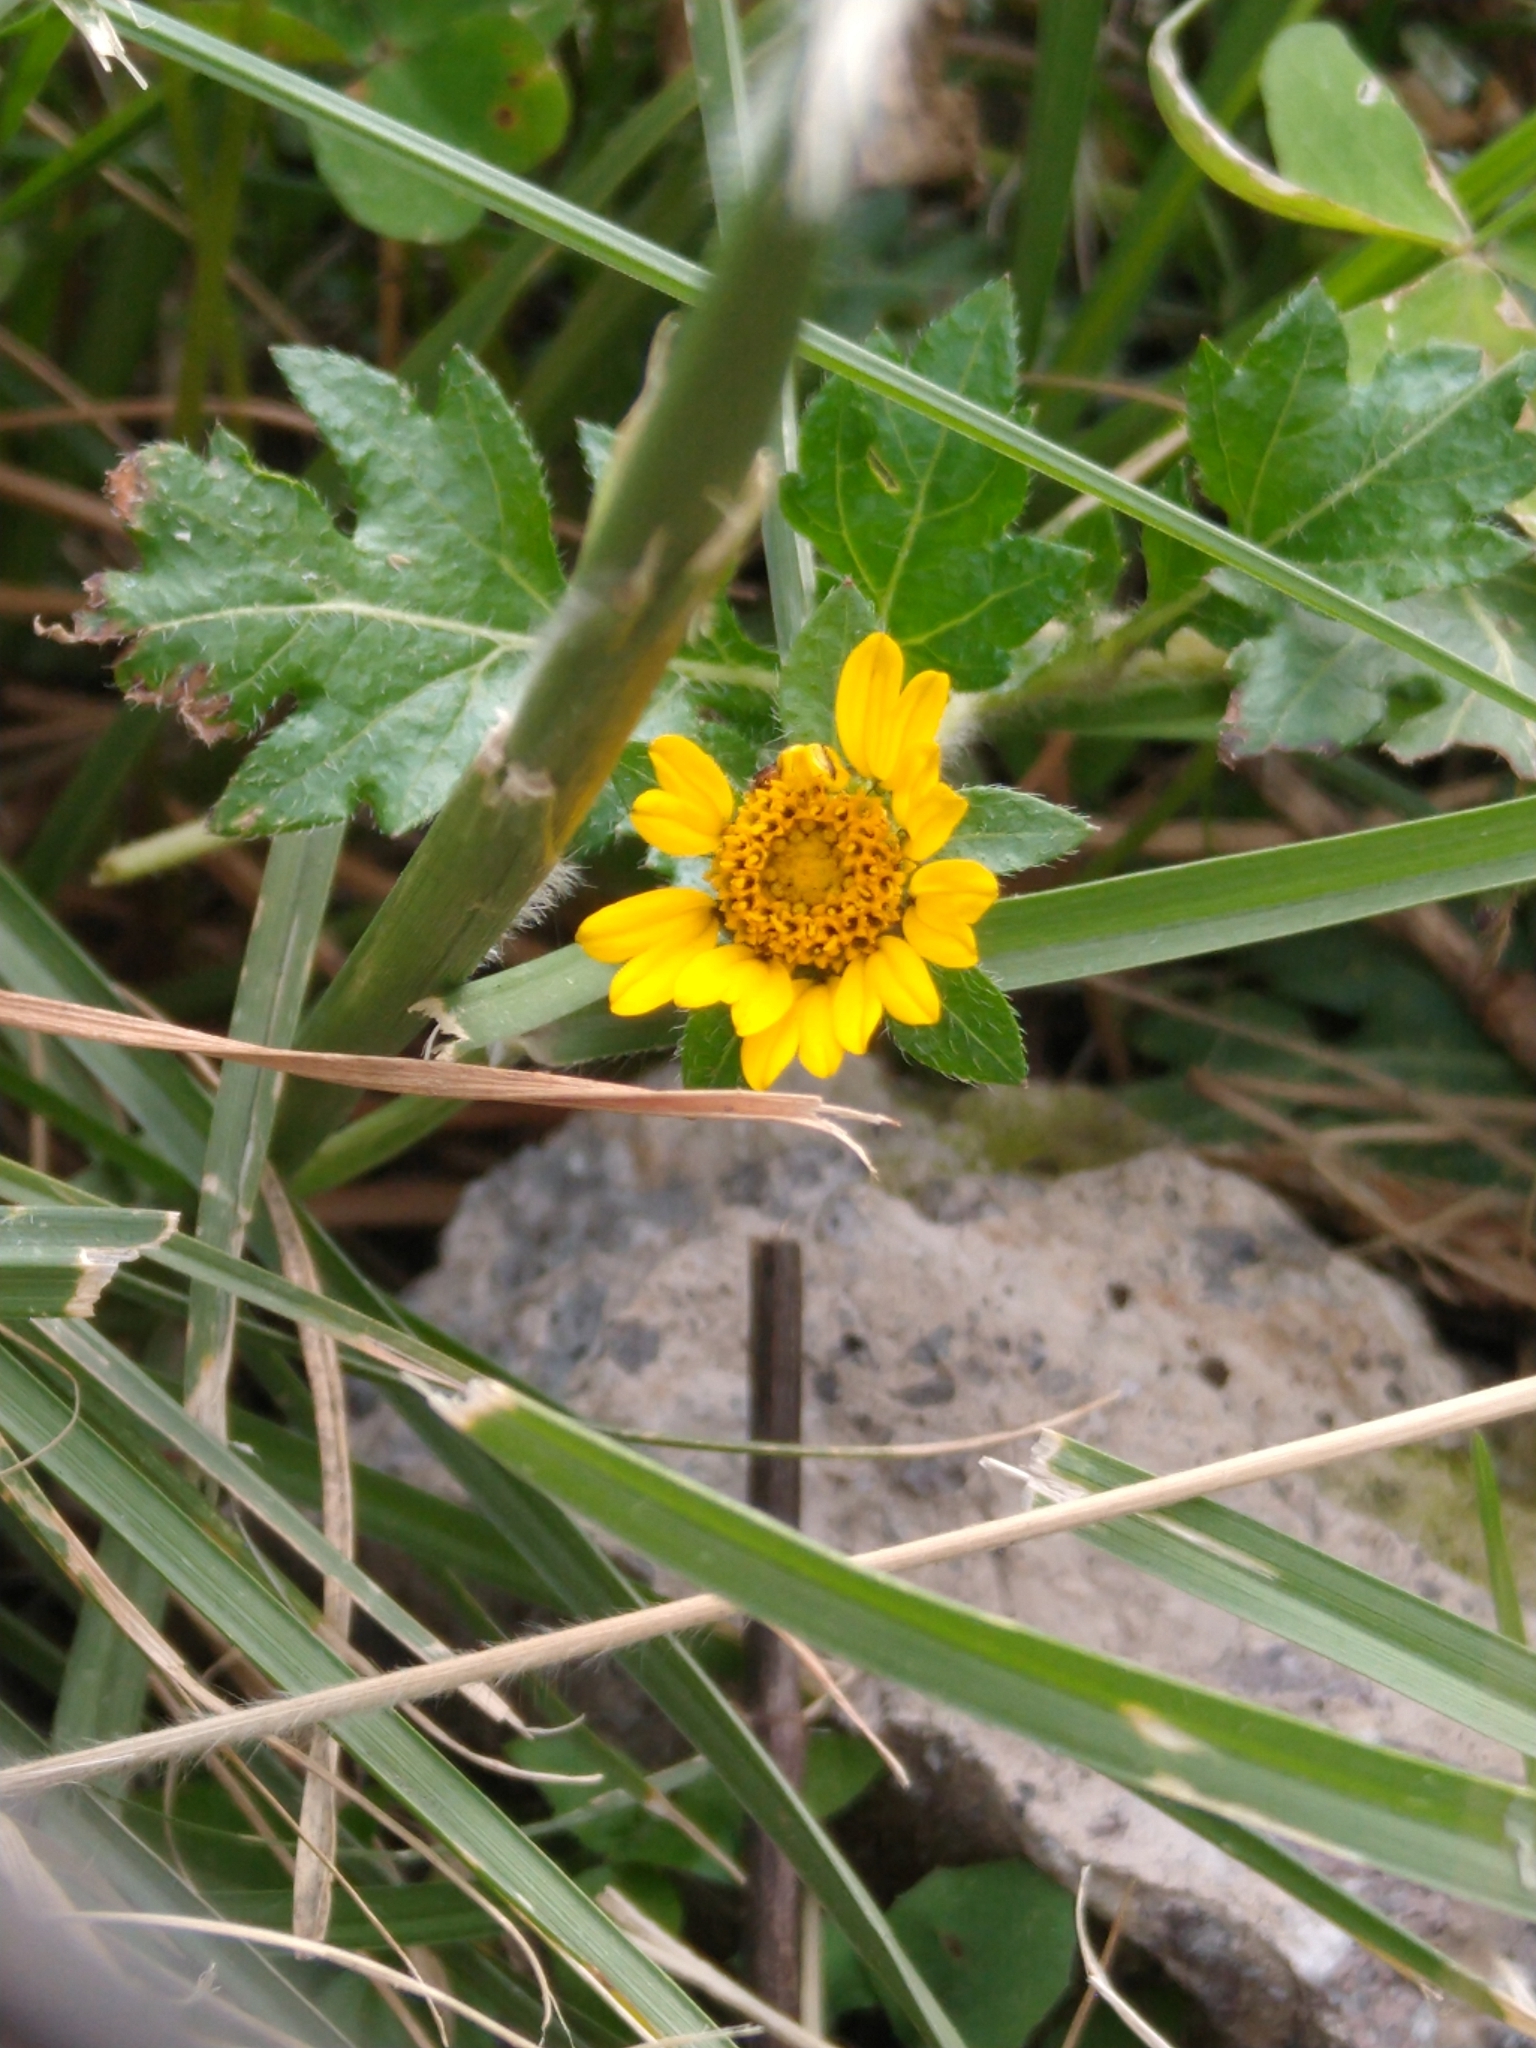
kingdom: Plantae
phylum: Tracheophyta
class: Magnoliopsida
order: Asterales
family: Asteraceae
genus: Dugesia
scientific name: Dugesia mexicana
